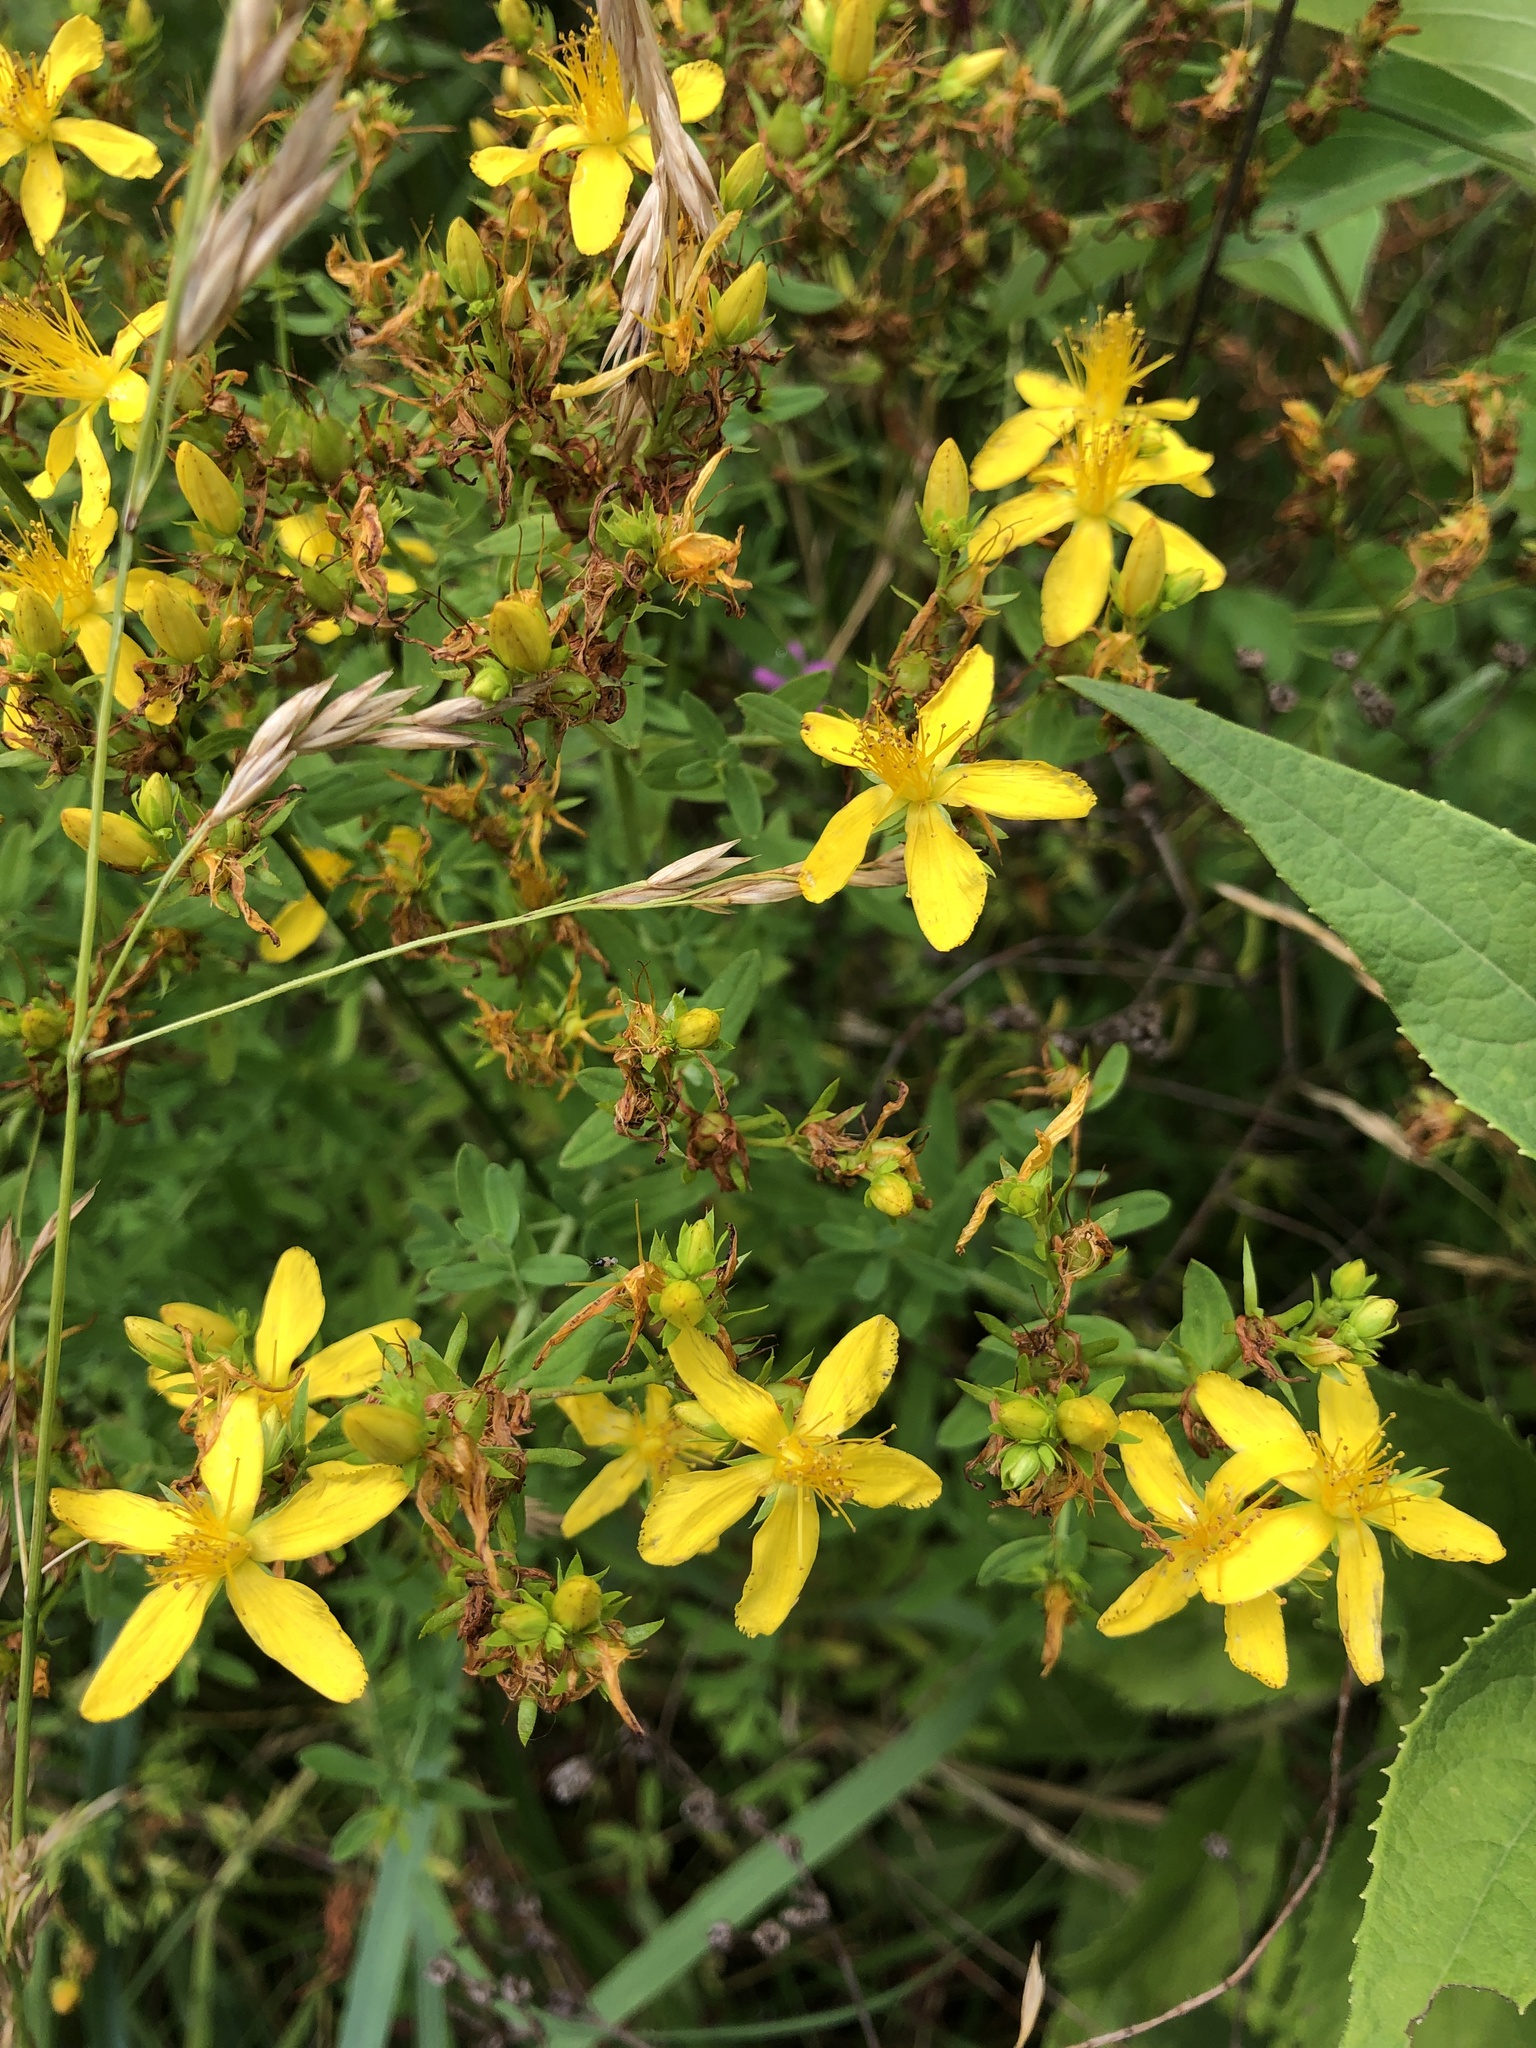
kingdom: Plantae
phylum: Tracheophyta
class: Magnoliopsida
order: Malpighiales
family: Hypericaceae
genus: Hypericum
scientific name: Hypericum perforatum
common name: Common st. johnswort
